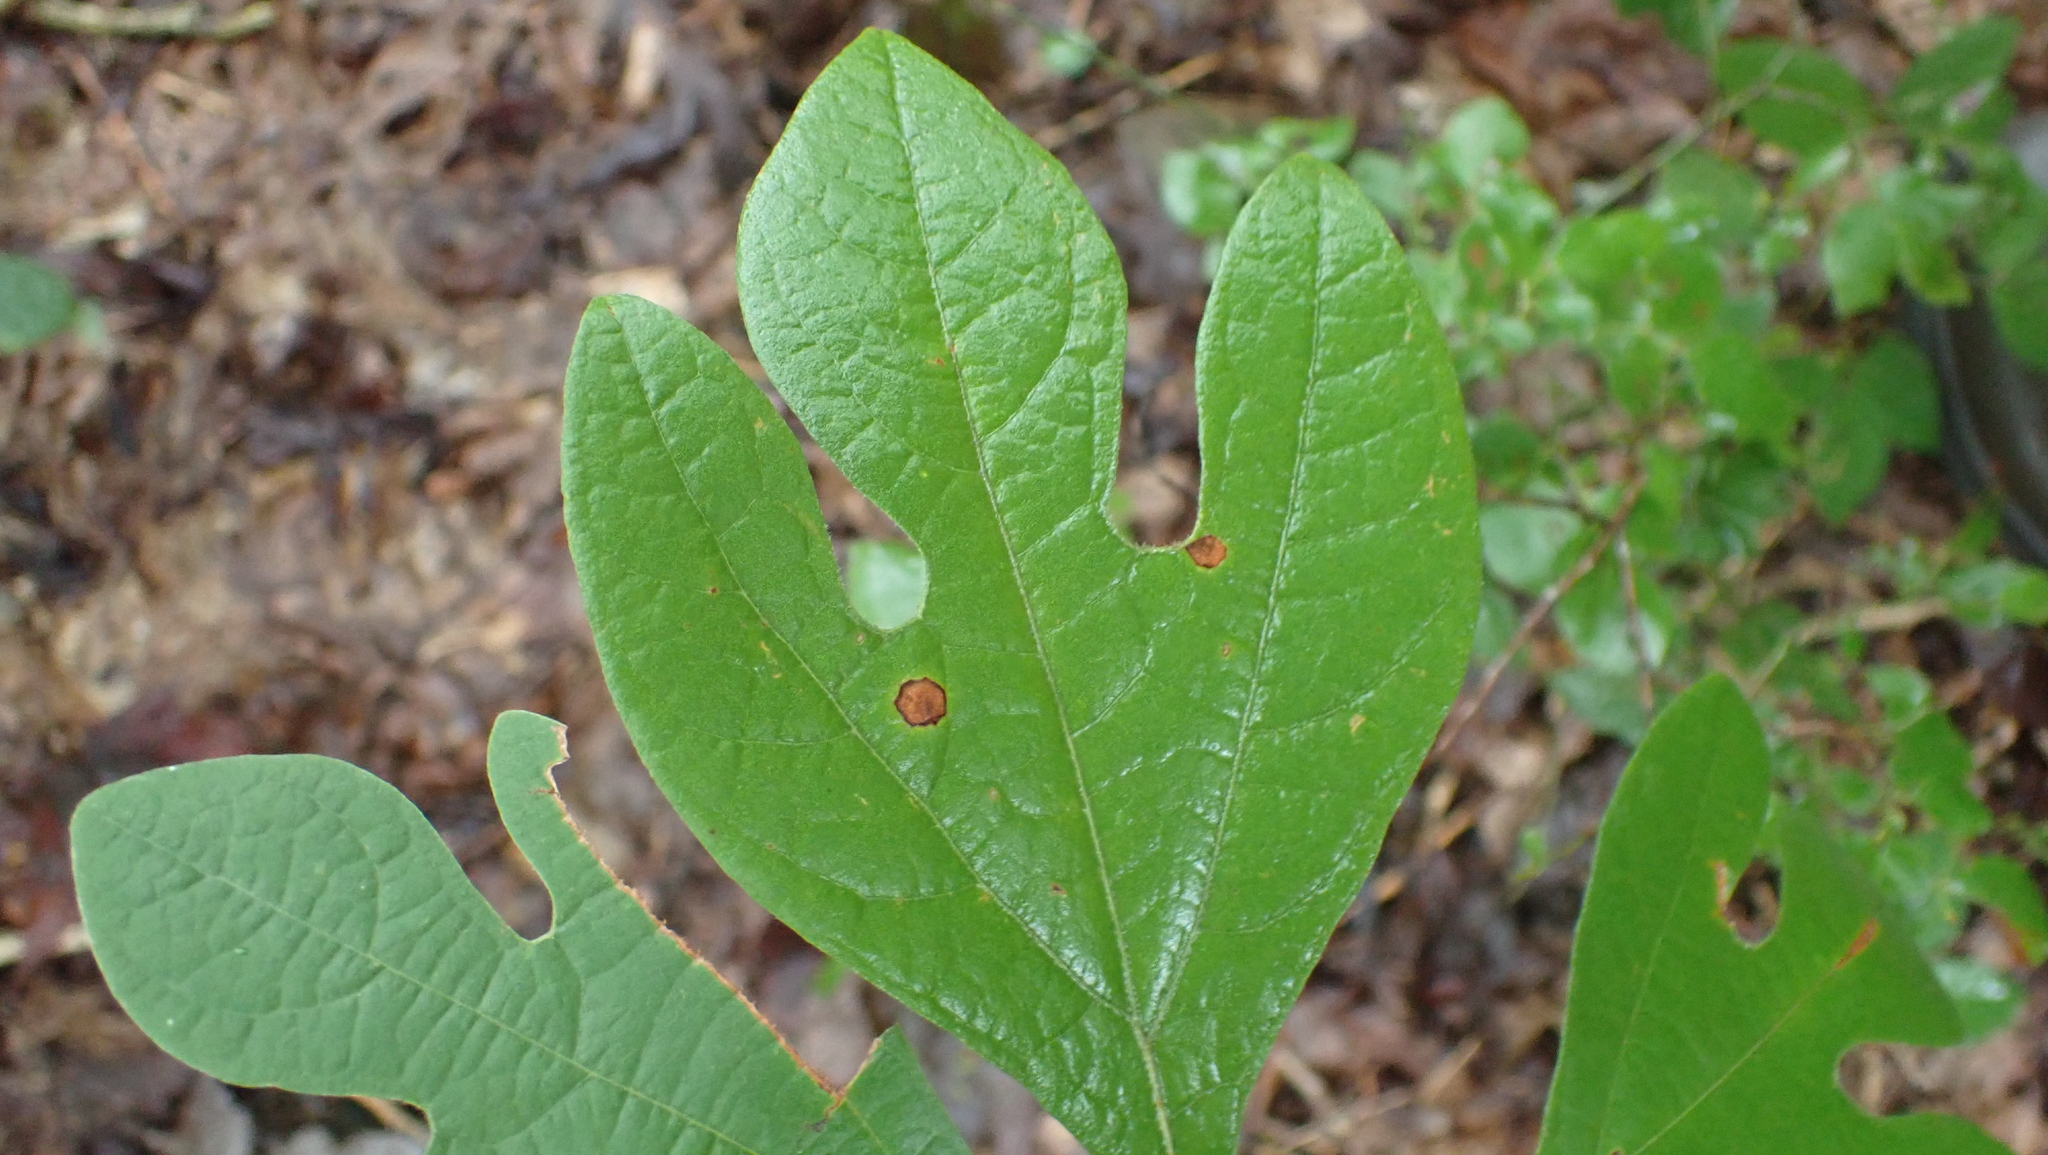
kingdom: Plantae
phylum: Tracheophyta
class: Magnoliopsida
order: Laurales
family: Lauraceae
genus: Sassafras
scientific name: Sassafras albidum
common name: Sassafras
